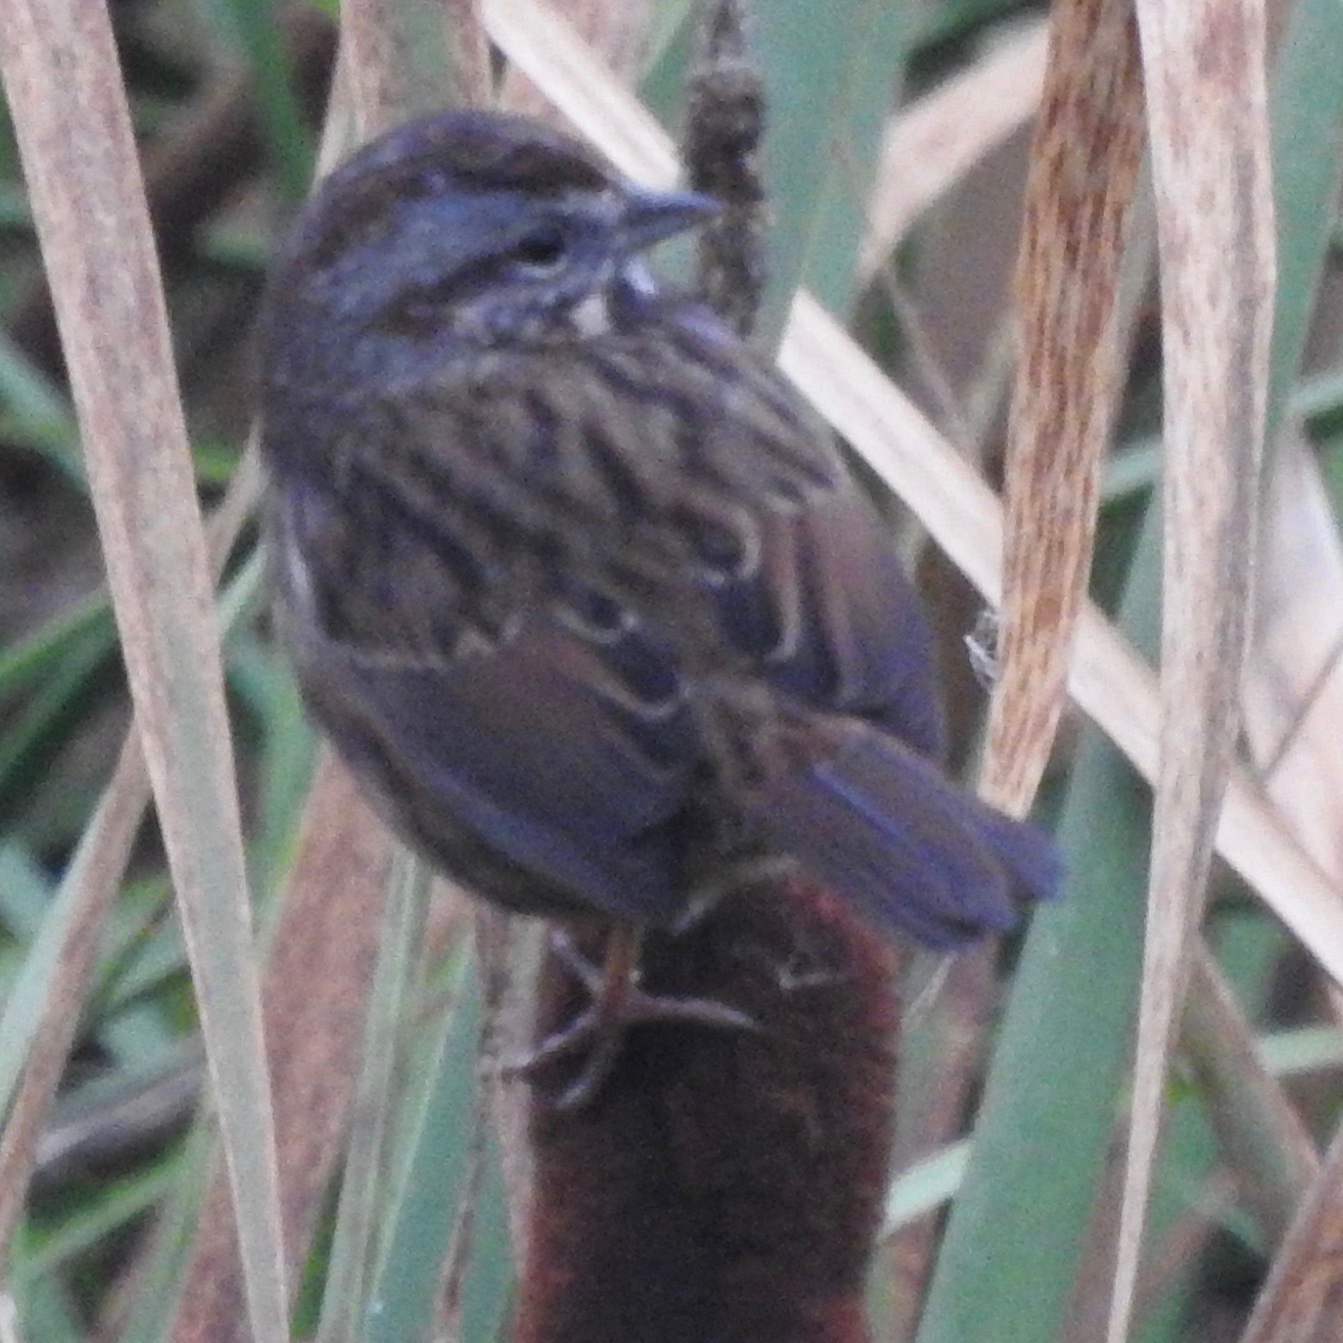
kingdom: Animalia
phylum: Chordata
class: Aves
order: Passeriformes
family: Passerellidae
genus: Melospiza
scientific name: Melospiza melodia
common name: Song sparrow
